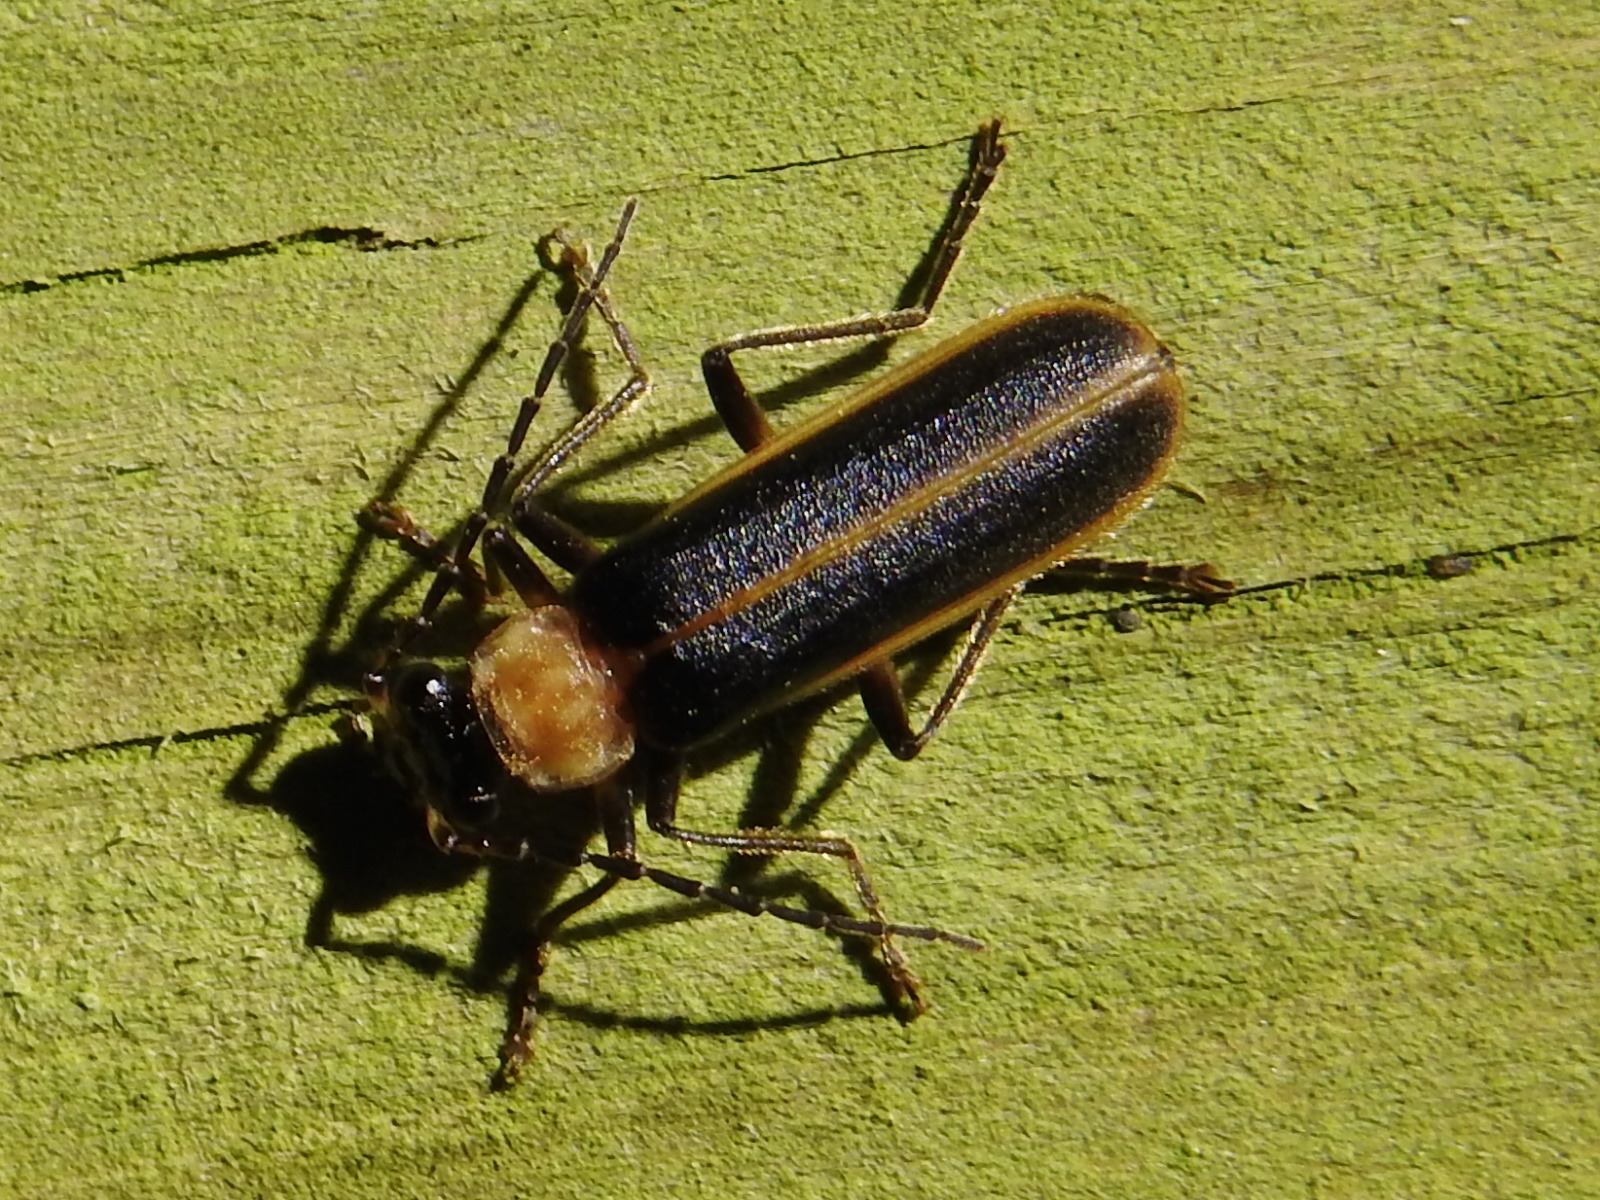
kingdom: Animalia
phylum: Arthropoda
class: Insecta
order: Coleoptera
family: Cantharidae
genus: Podabrus
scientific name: Podabrus flavicollis
